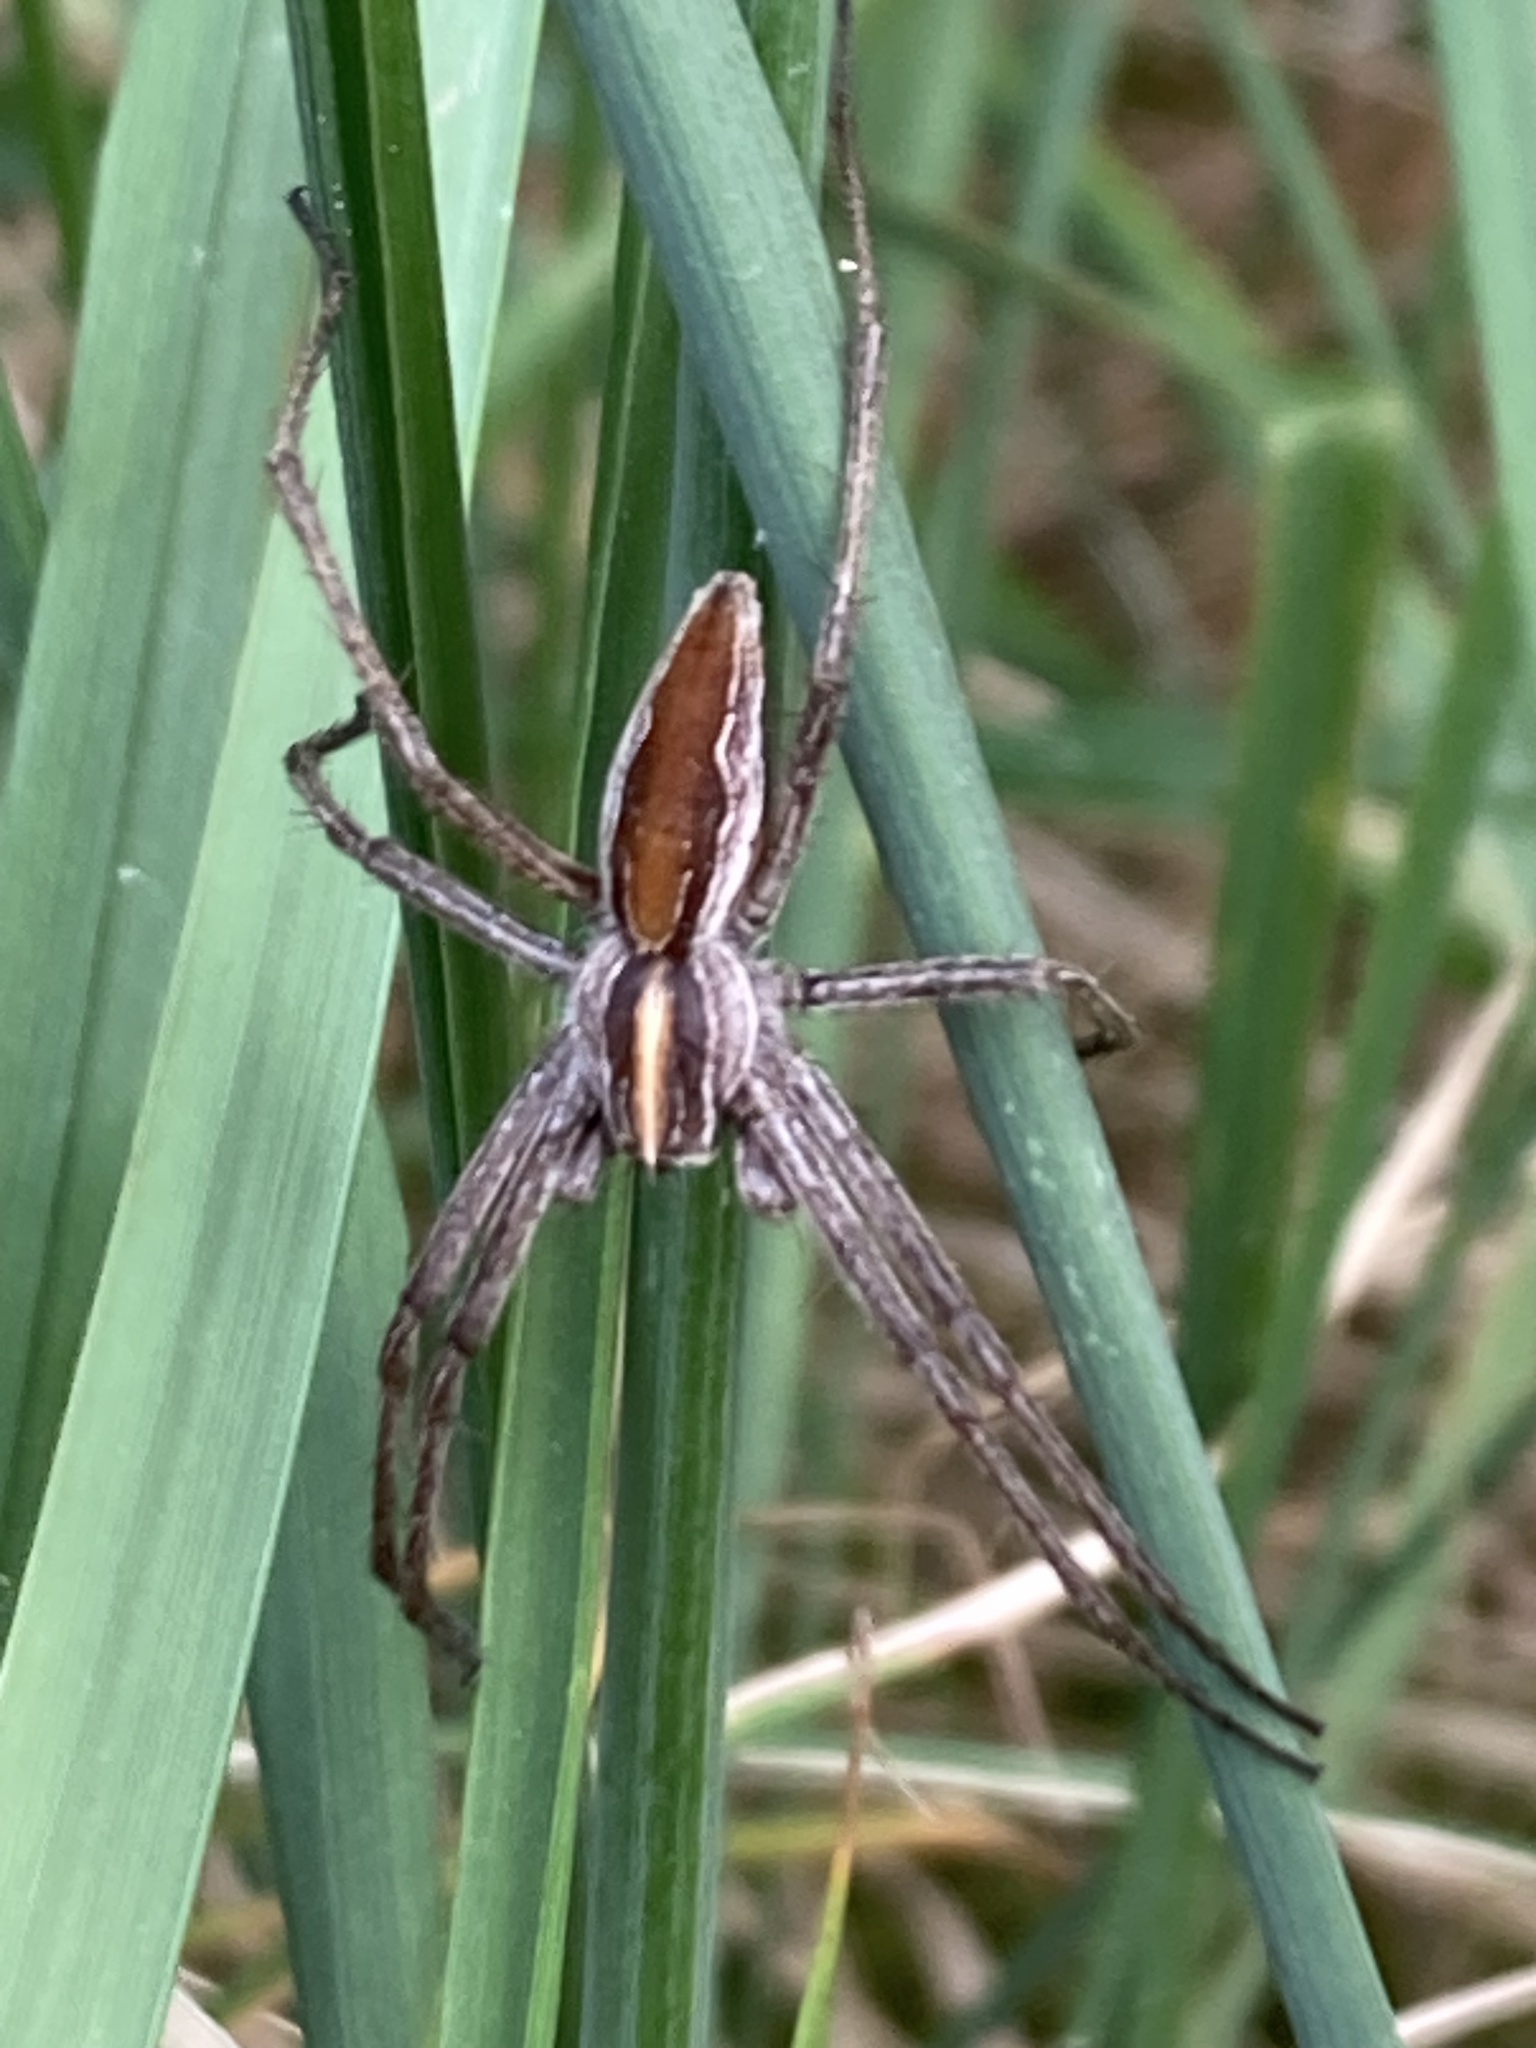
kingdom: Animalia
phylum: Arthropoda
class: Arachnida
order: Araneae
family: Pisauridae
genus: Pisaura
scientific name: Pisaura mirabilis
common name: Tent spider
